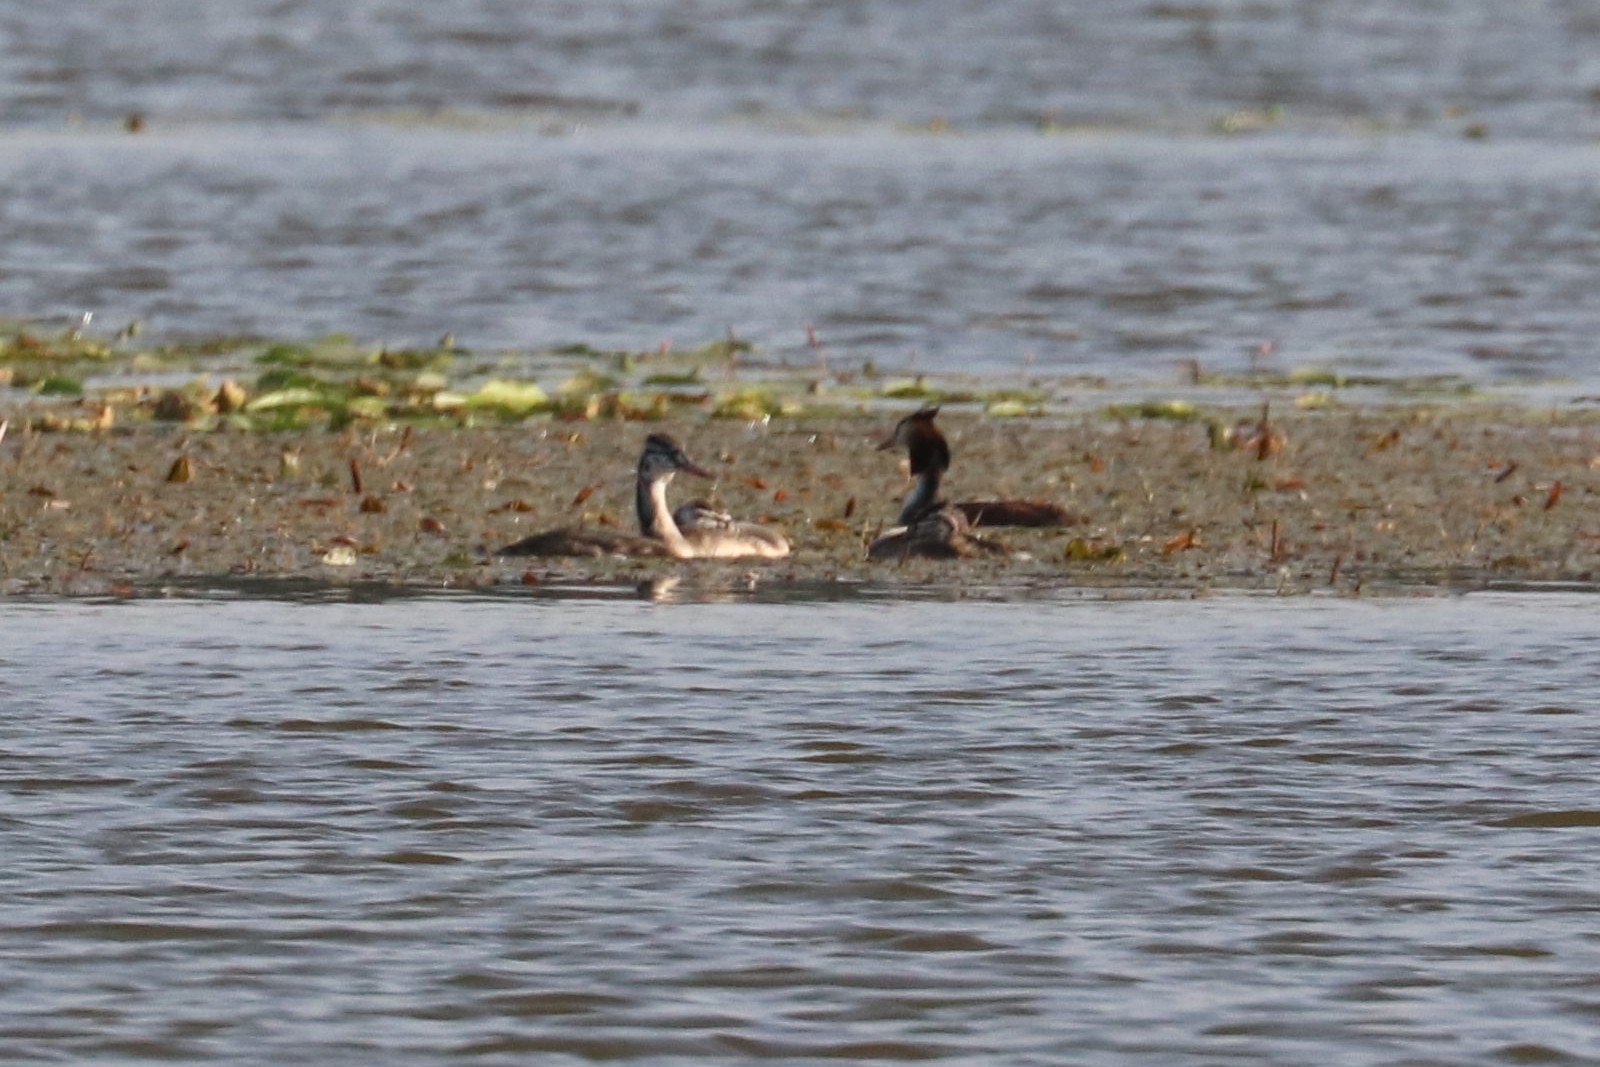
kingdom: Animalia
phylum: Chordata
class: Aves
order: Podicipediformes
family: Podicipedidae
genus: Podiceps
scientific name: Podiceps cristatus
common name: Great crested grebe
